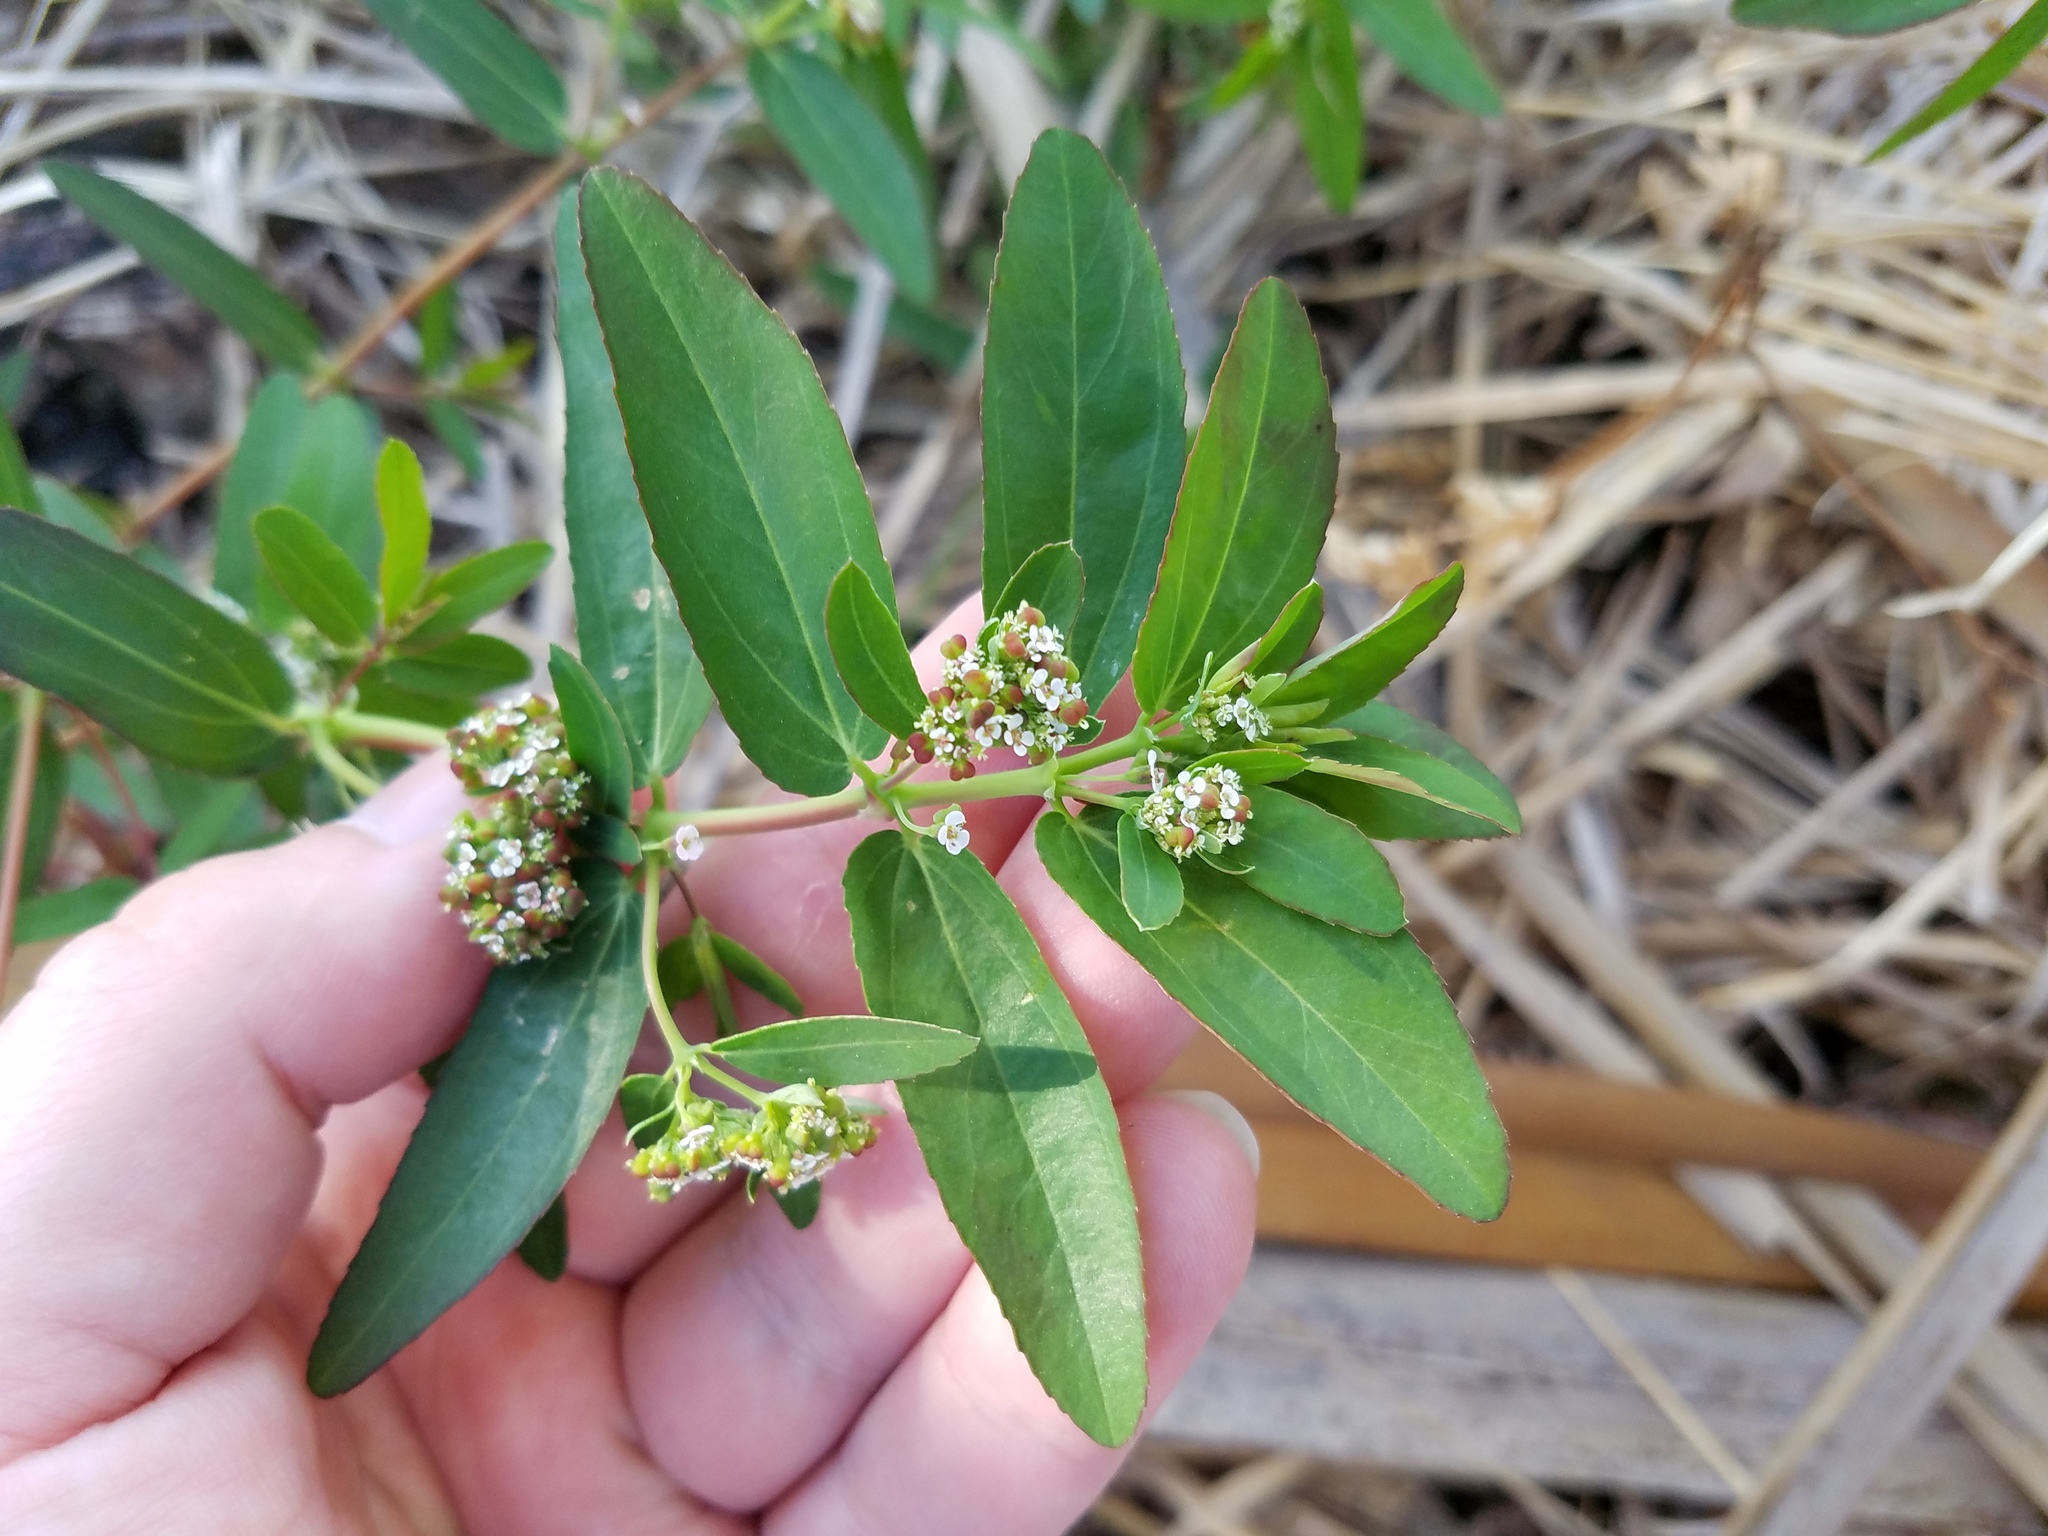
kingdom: Plantae
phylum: Tracheophyta
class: Magnoliopsida
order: Malpighiales
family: Euphorbiaceae
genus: Euphorbia
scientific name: Euphorbia hypericifolia
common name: Graceful sandmat
